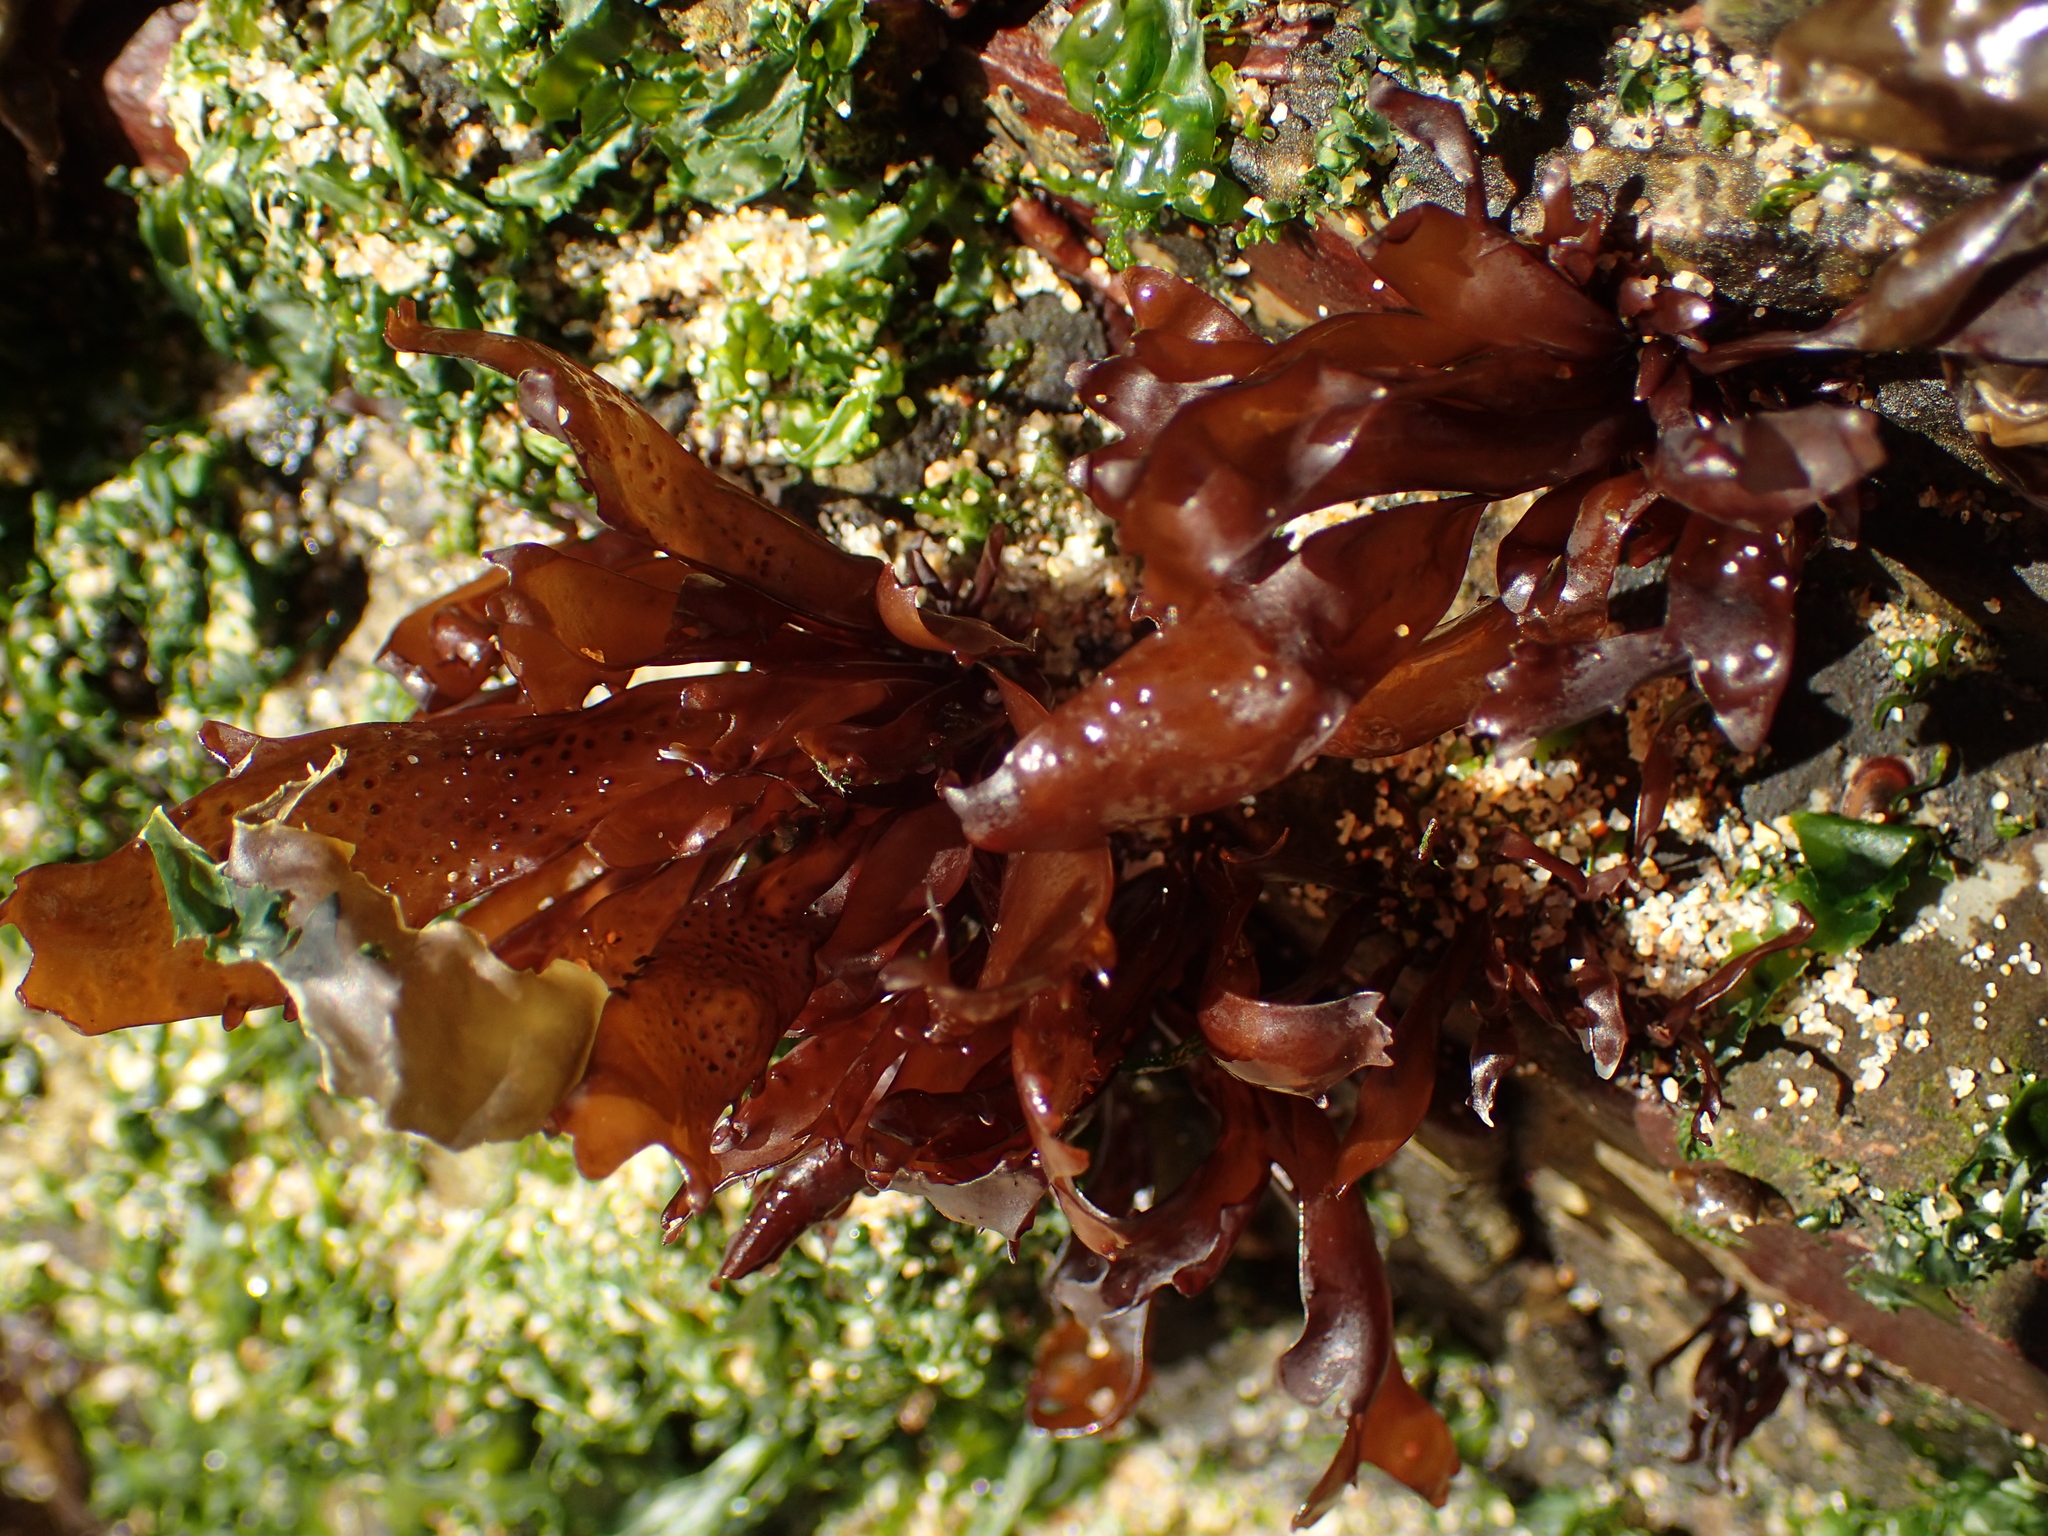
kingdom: Plantae
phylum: Rhodophyta
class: Florideophyceae
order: Gigartinales
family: Phyllophoraceae
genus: Mastocarpus
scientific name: Mastocarpus papillatus
